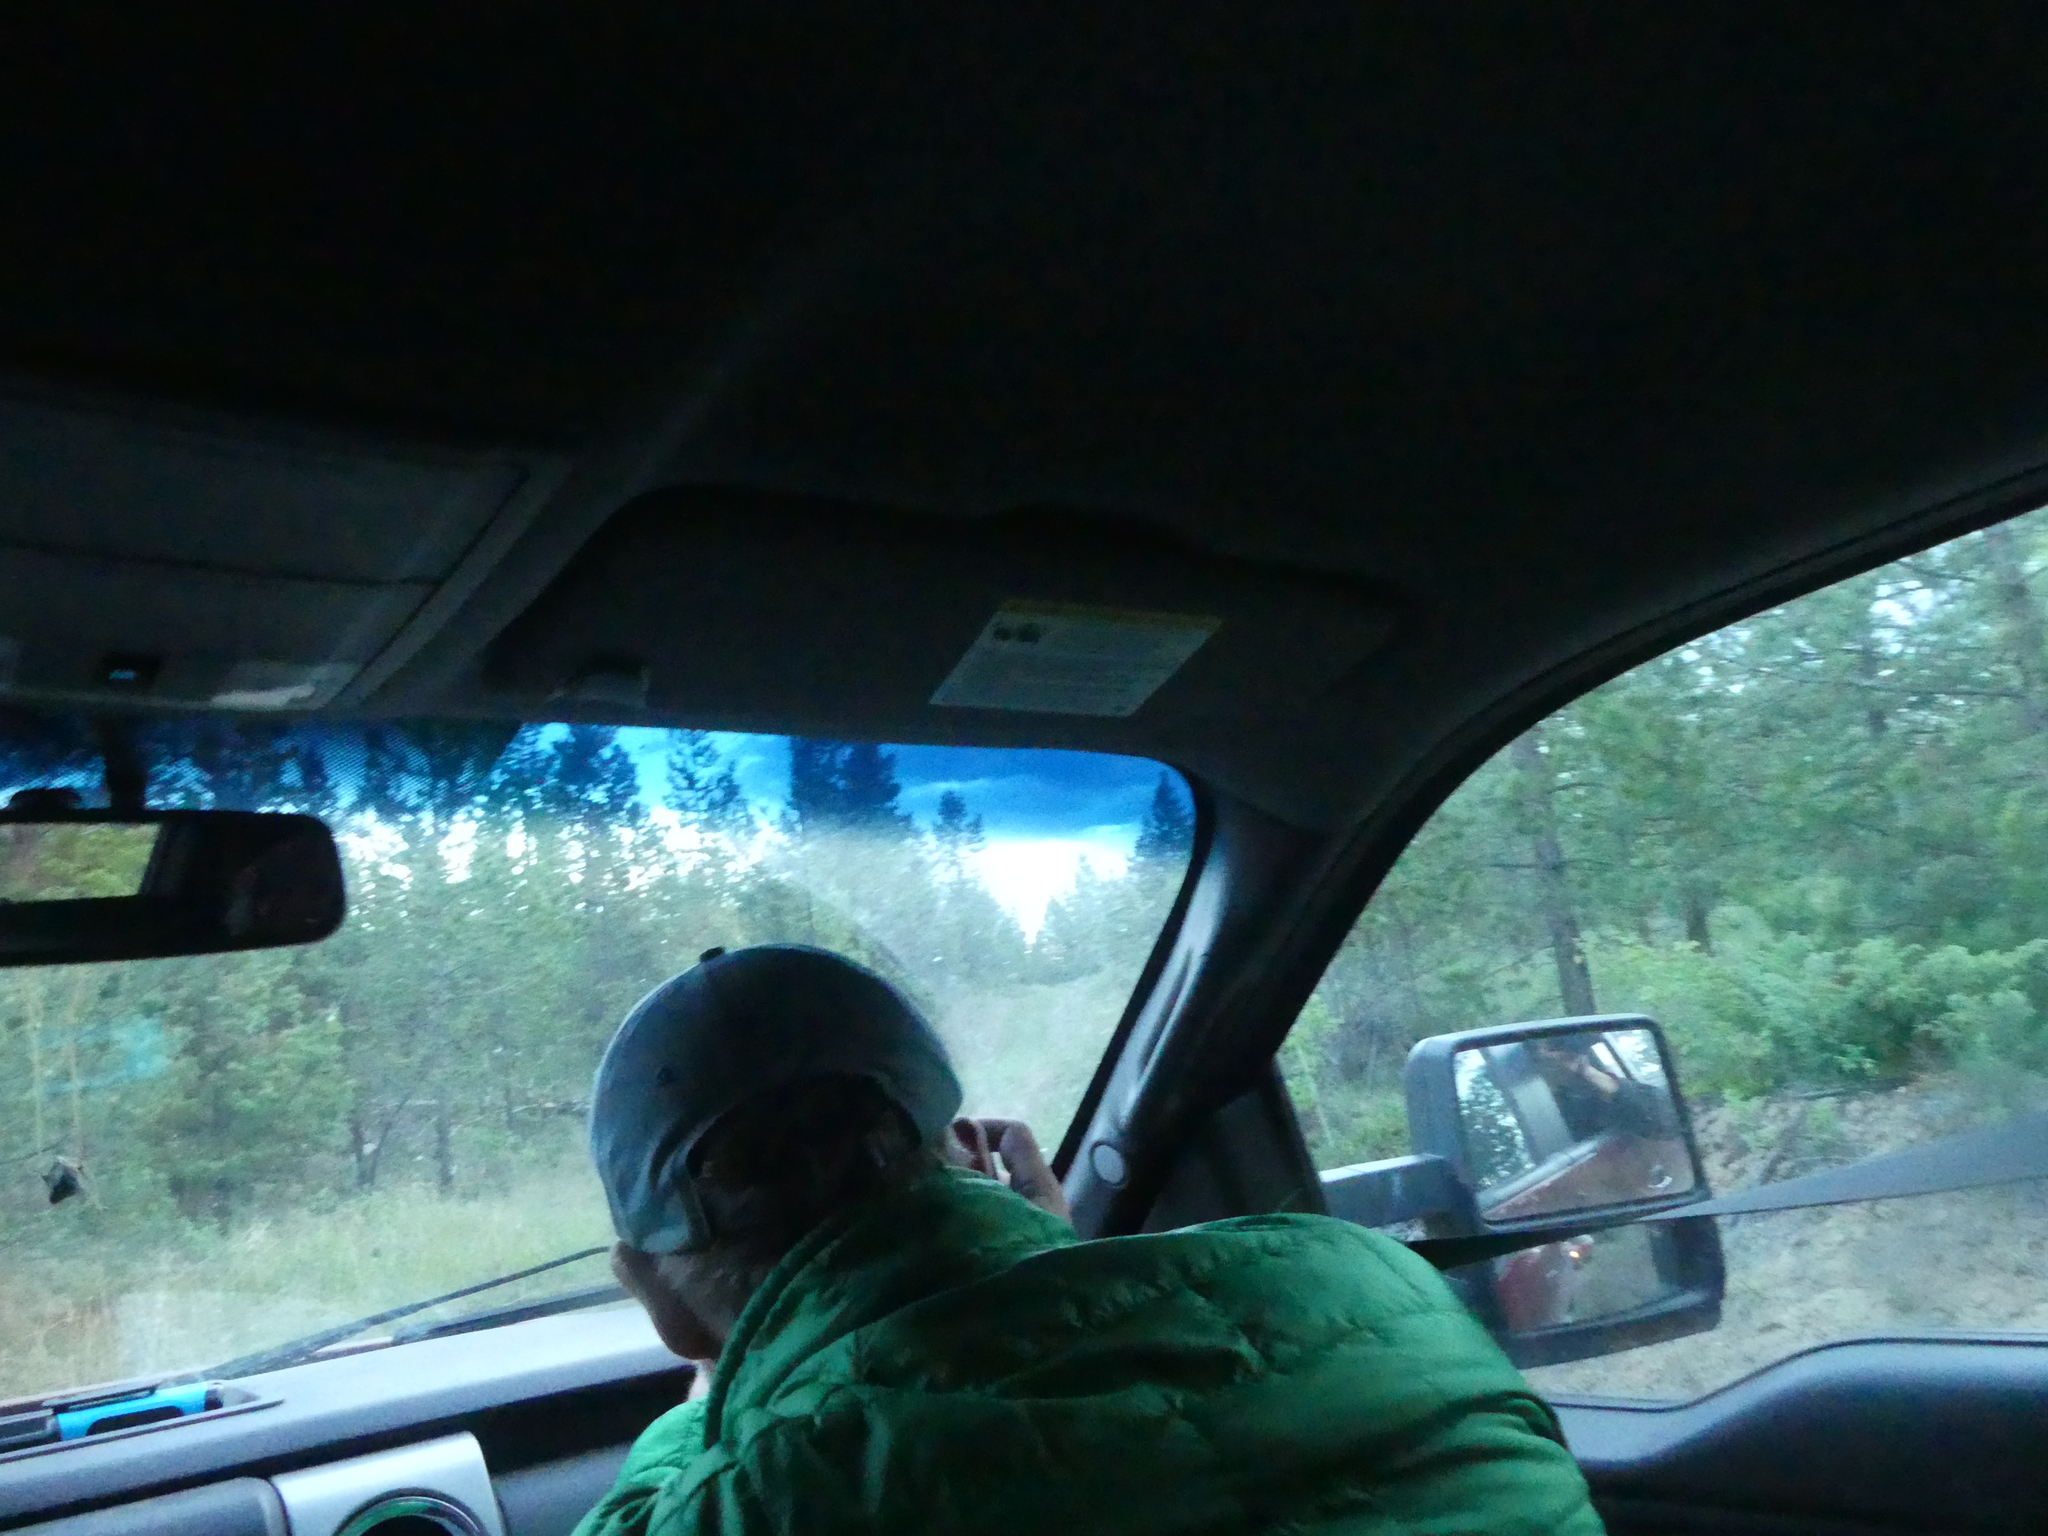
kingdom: Animalia
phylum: Chordata
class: Mammalia
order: Carnivora
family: Mustelidae
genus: Taxidea
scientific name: Taxidea taxus
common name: American badger
